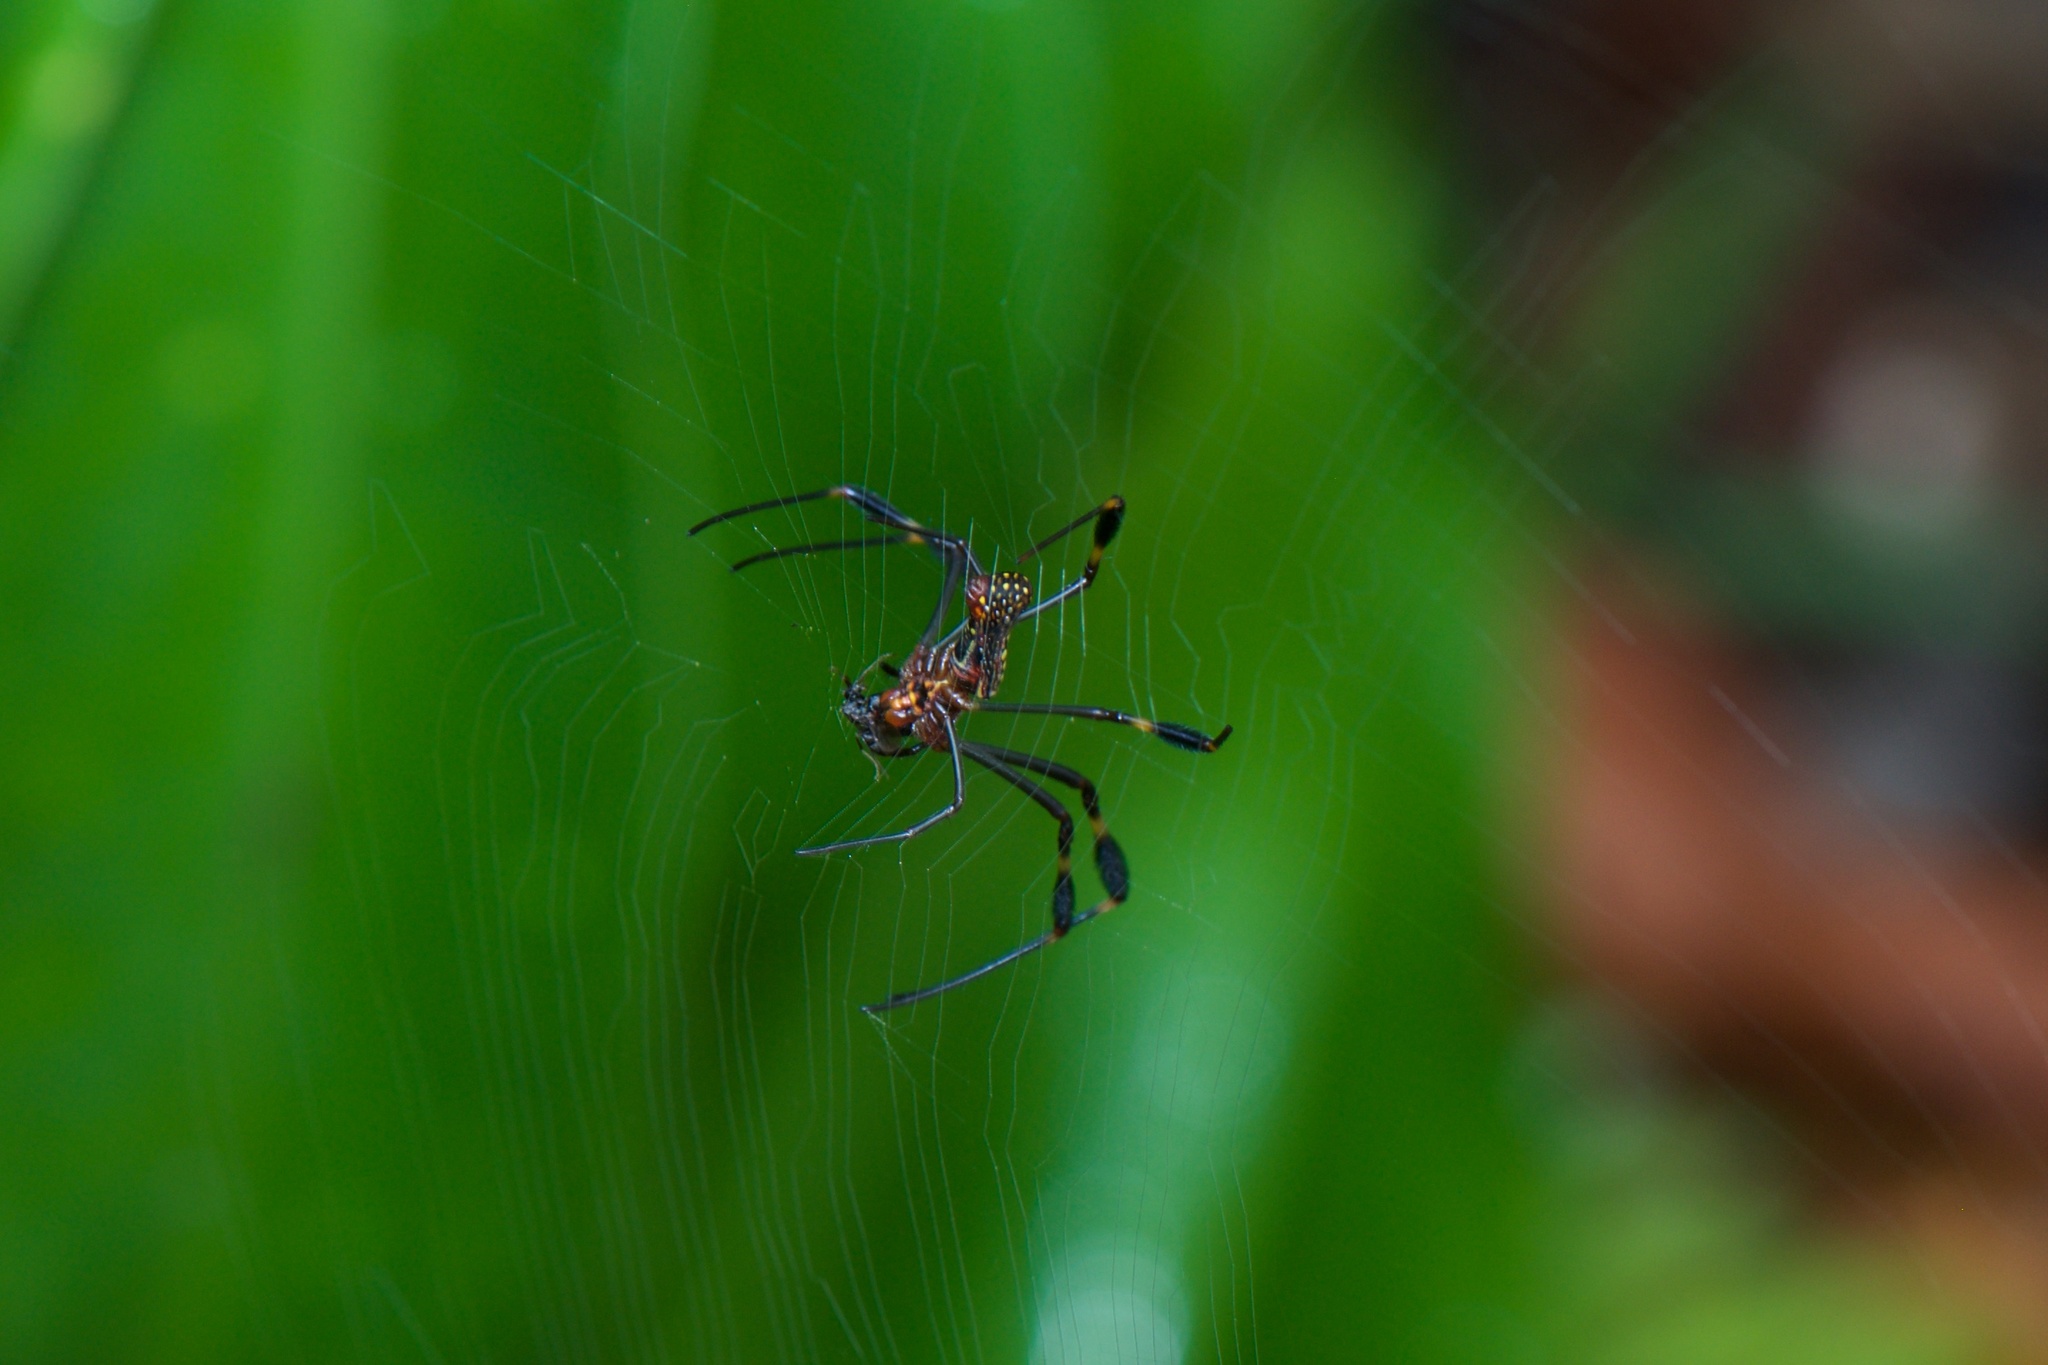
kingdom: Animalia
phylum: Arthropoda
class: Arachnida
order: Araneae
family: Araneidae
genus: Trichonephila
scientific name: Trichonephila clavipes
